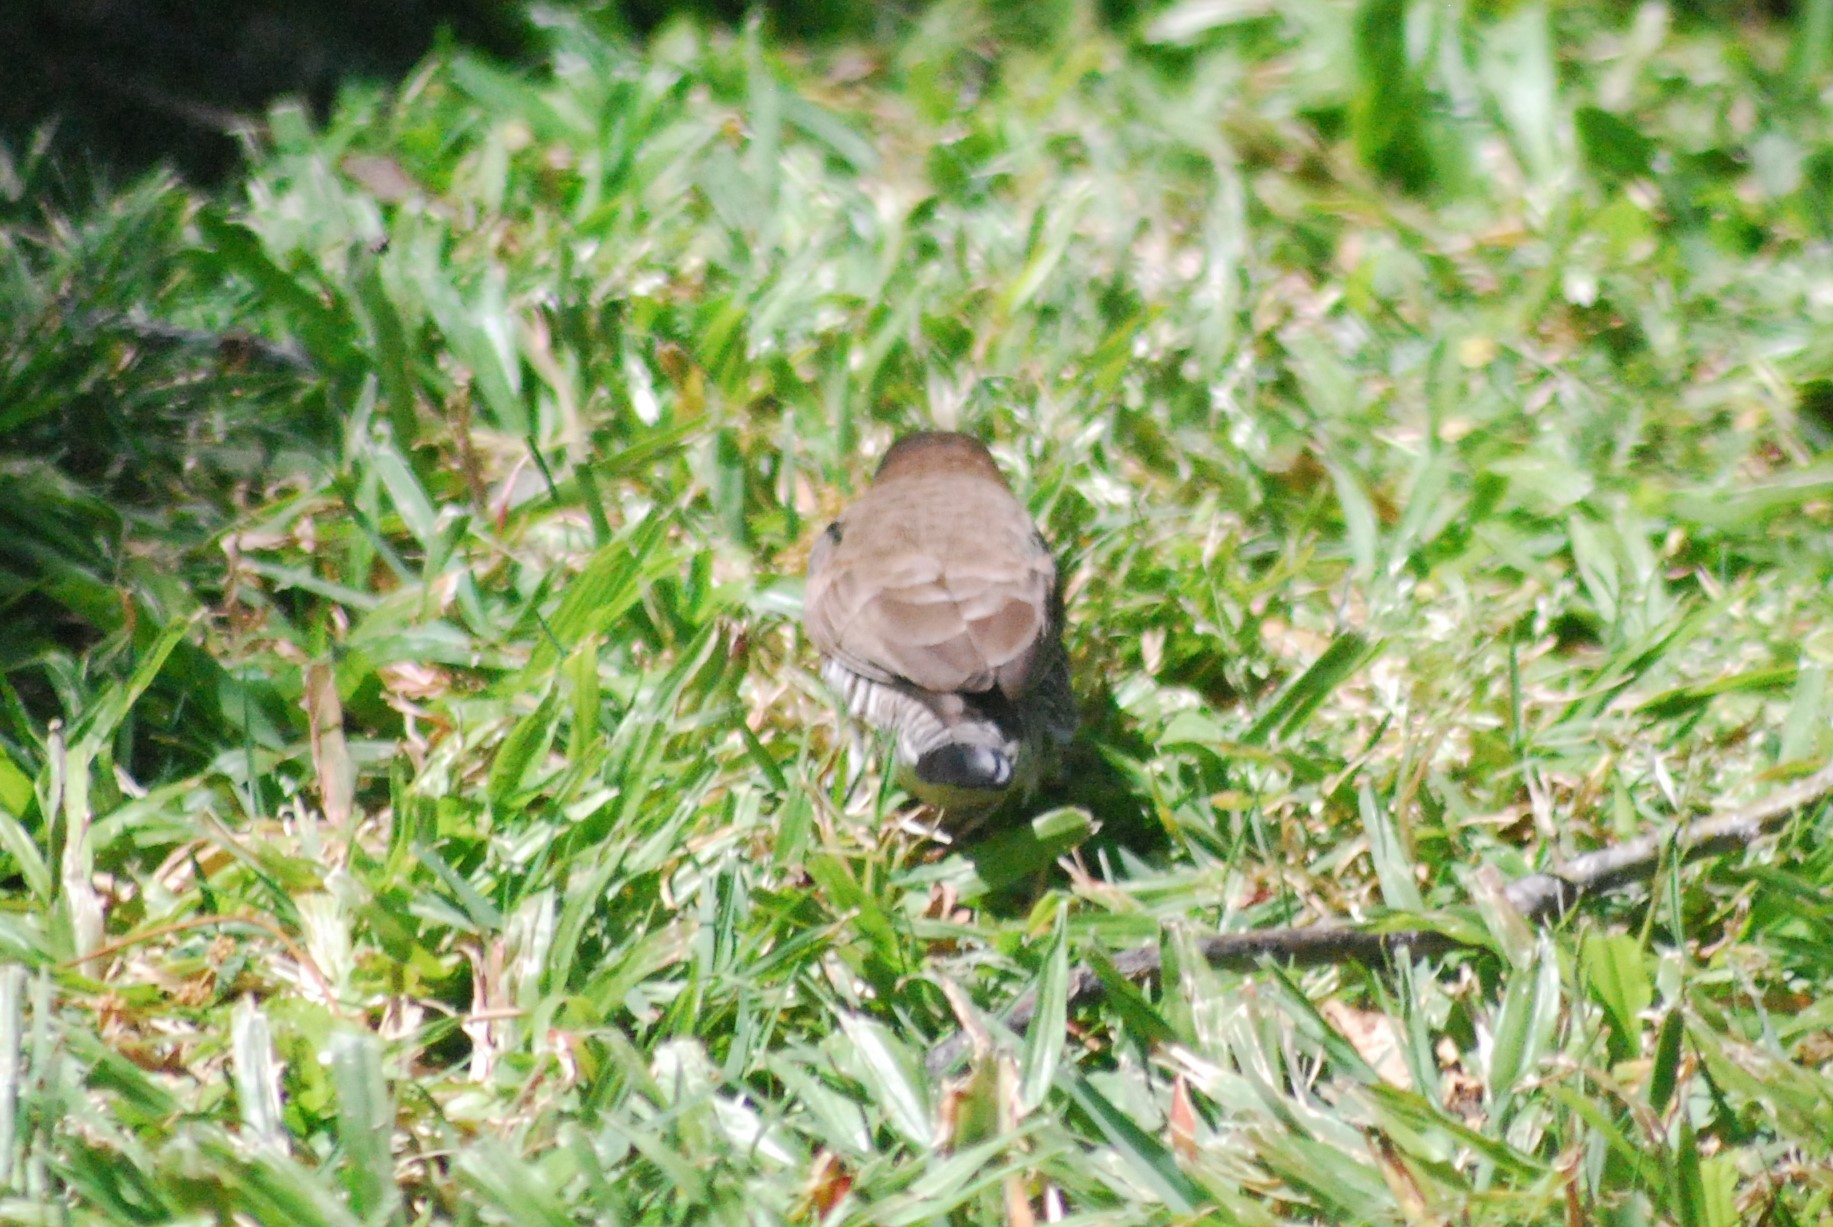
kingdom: Animalia
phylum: Chordata
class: Aves
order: Passeriformes
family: Estrildidae
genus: Lonchura
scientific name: Lonchura cucullata
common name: Bronze mannikin
